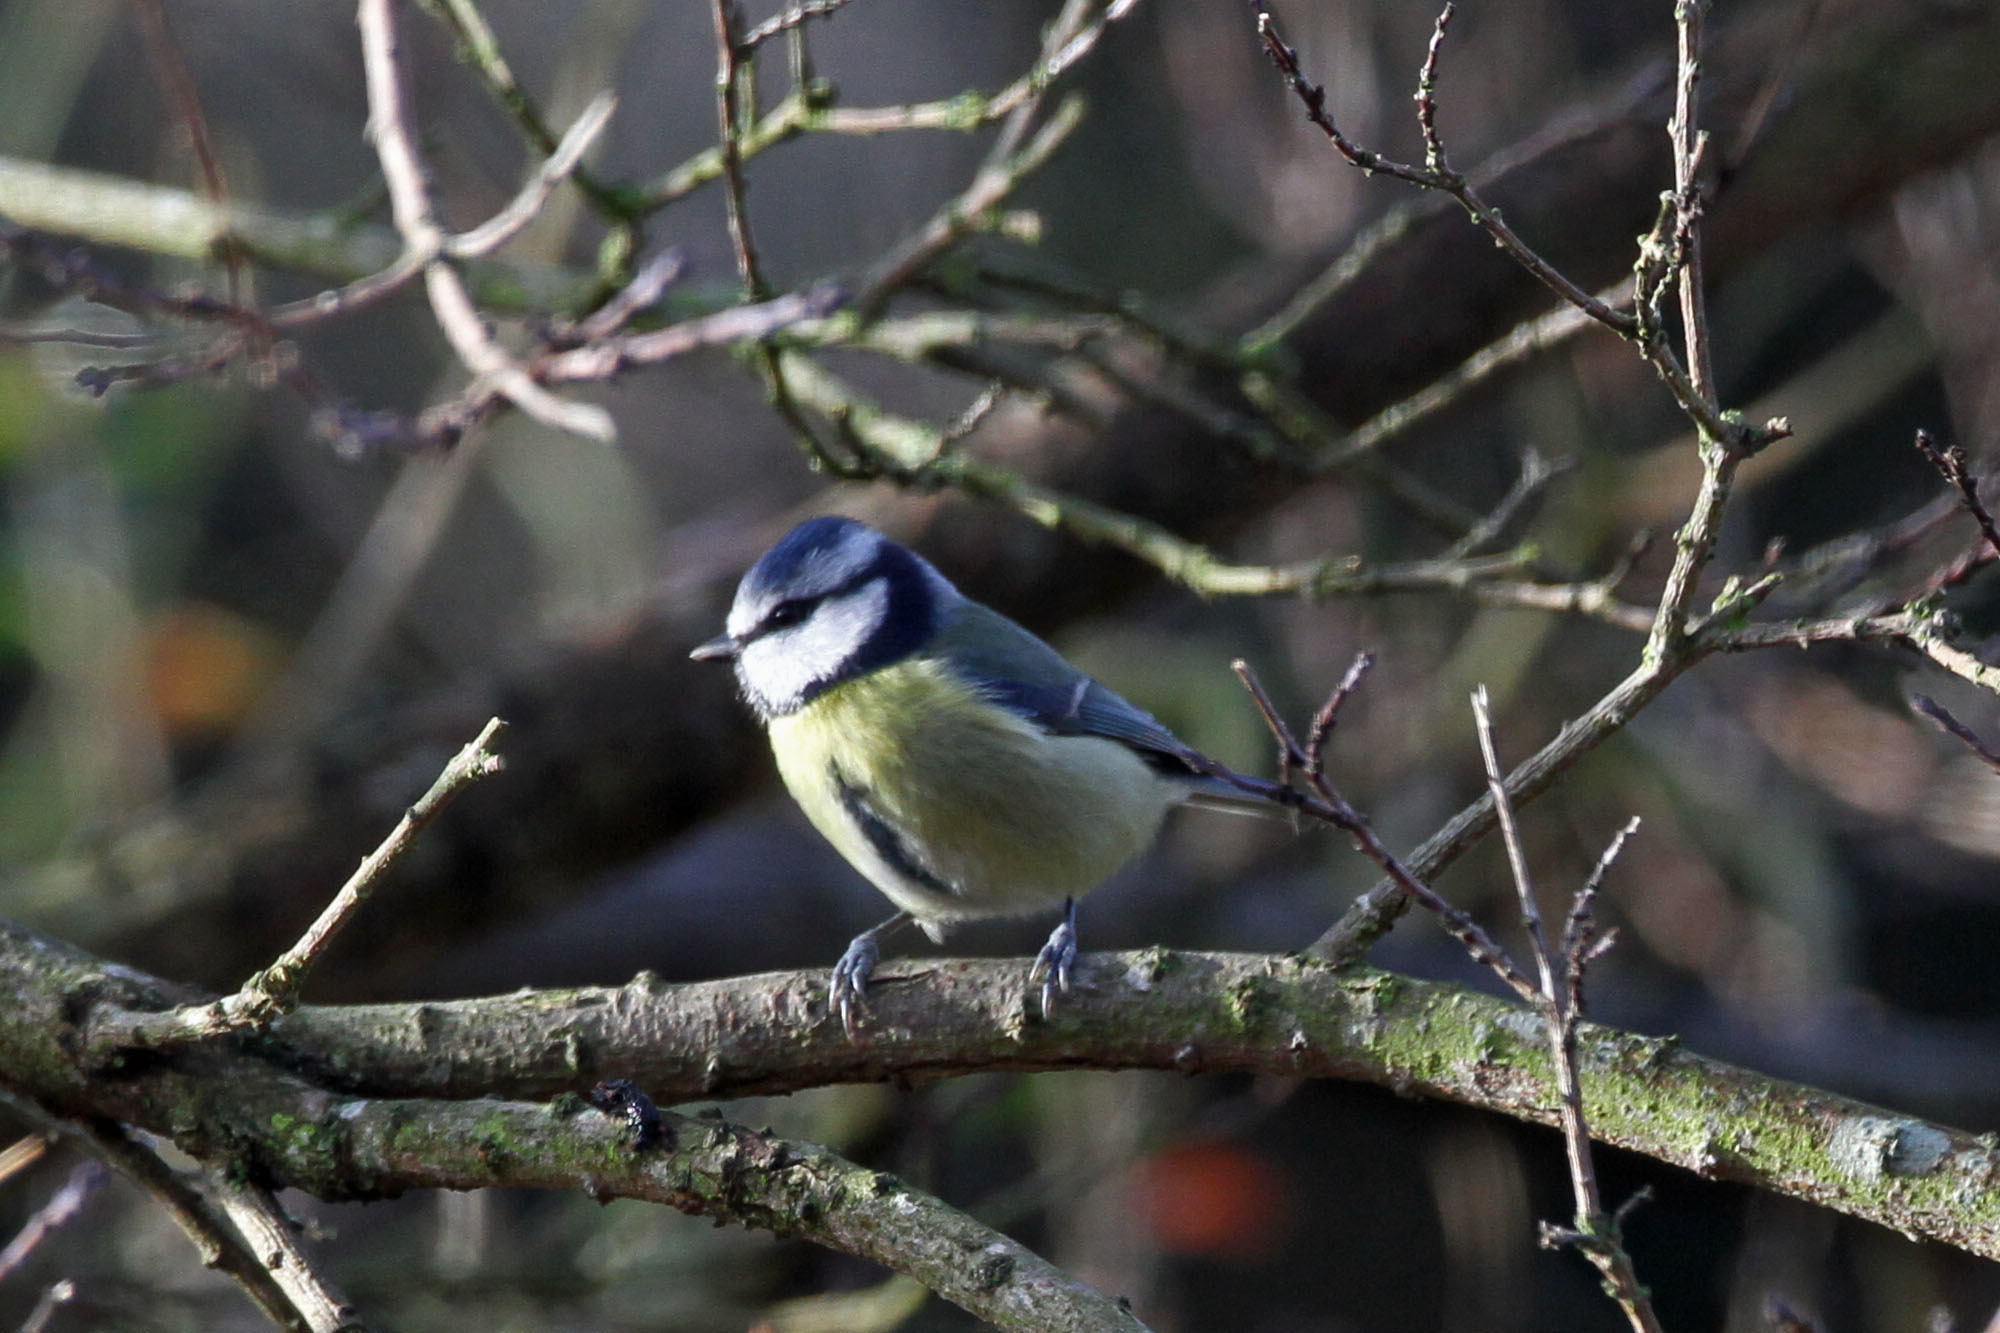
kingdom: Animalia
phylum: Chordata
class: Aves
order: Passeriformes
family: Paridae
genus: Cyanistes
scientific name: Cyanistes caeruleus
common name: Eurasian blue tit
